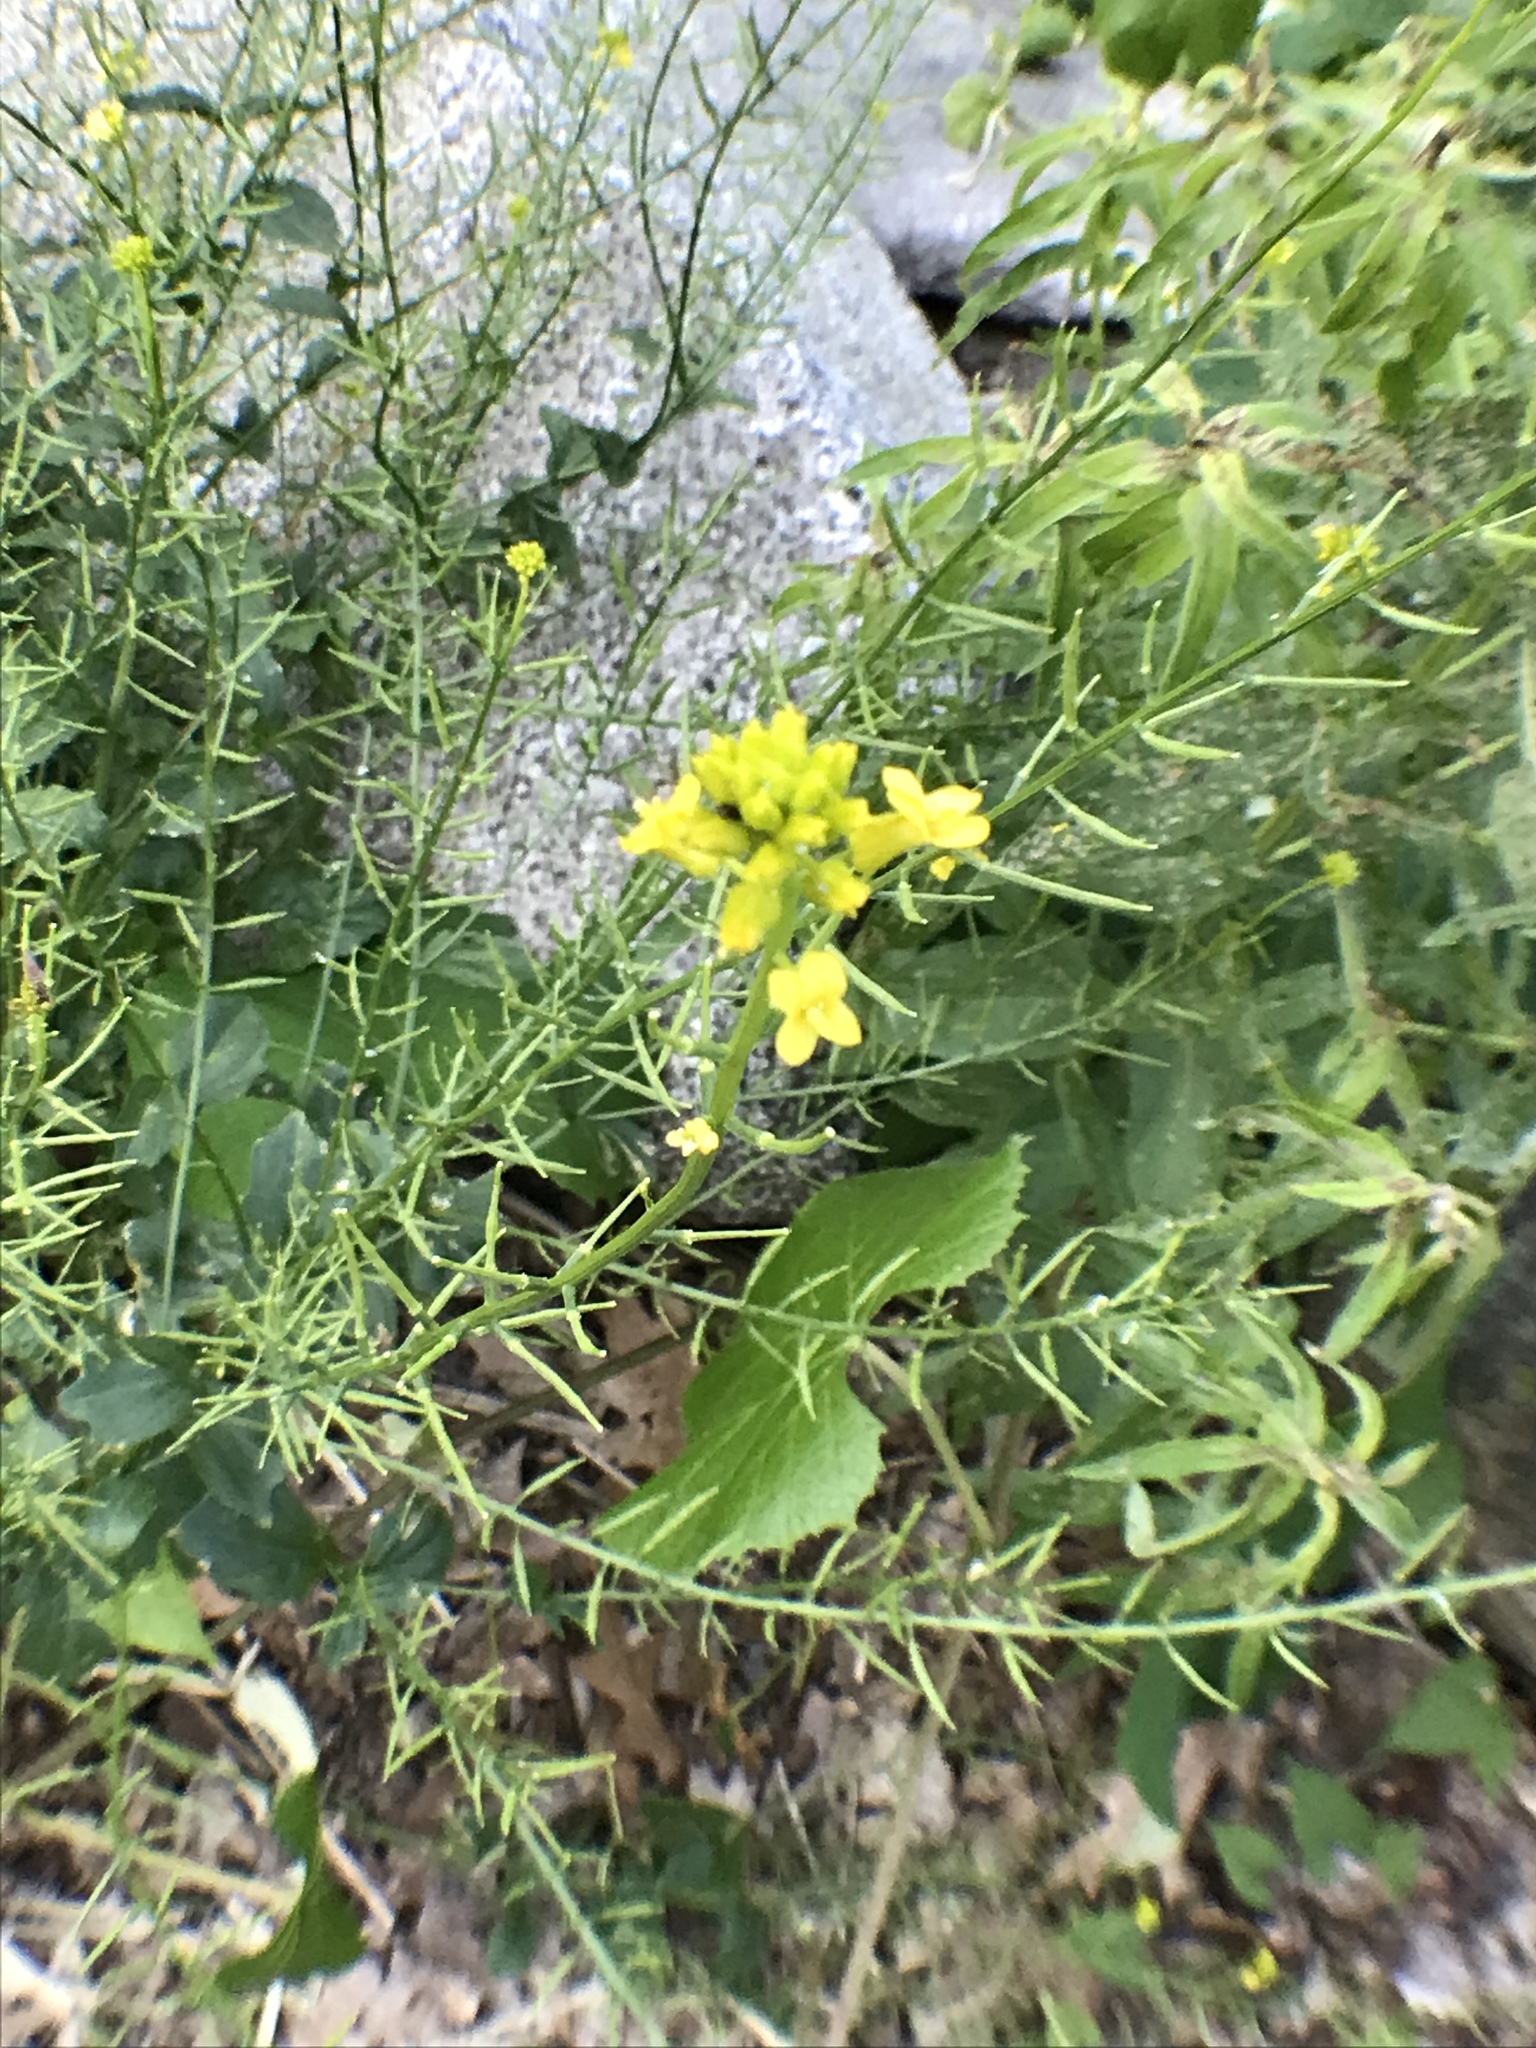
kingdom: Plantae
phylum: Tracheophyta
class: Magnoliopsida
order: Brassicales
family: Brassicaceae
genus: Barbarea
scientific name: Barbarea vulgaris
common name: Cressy-greens
